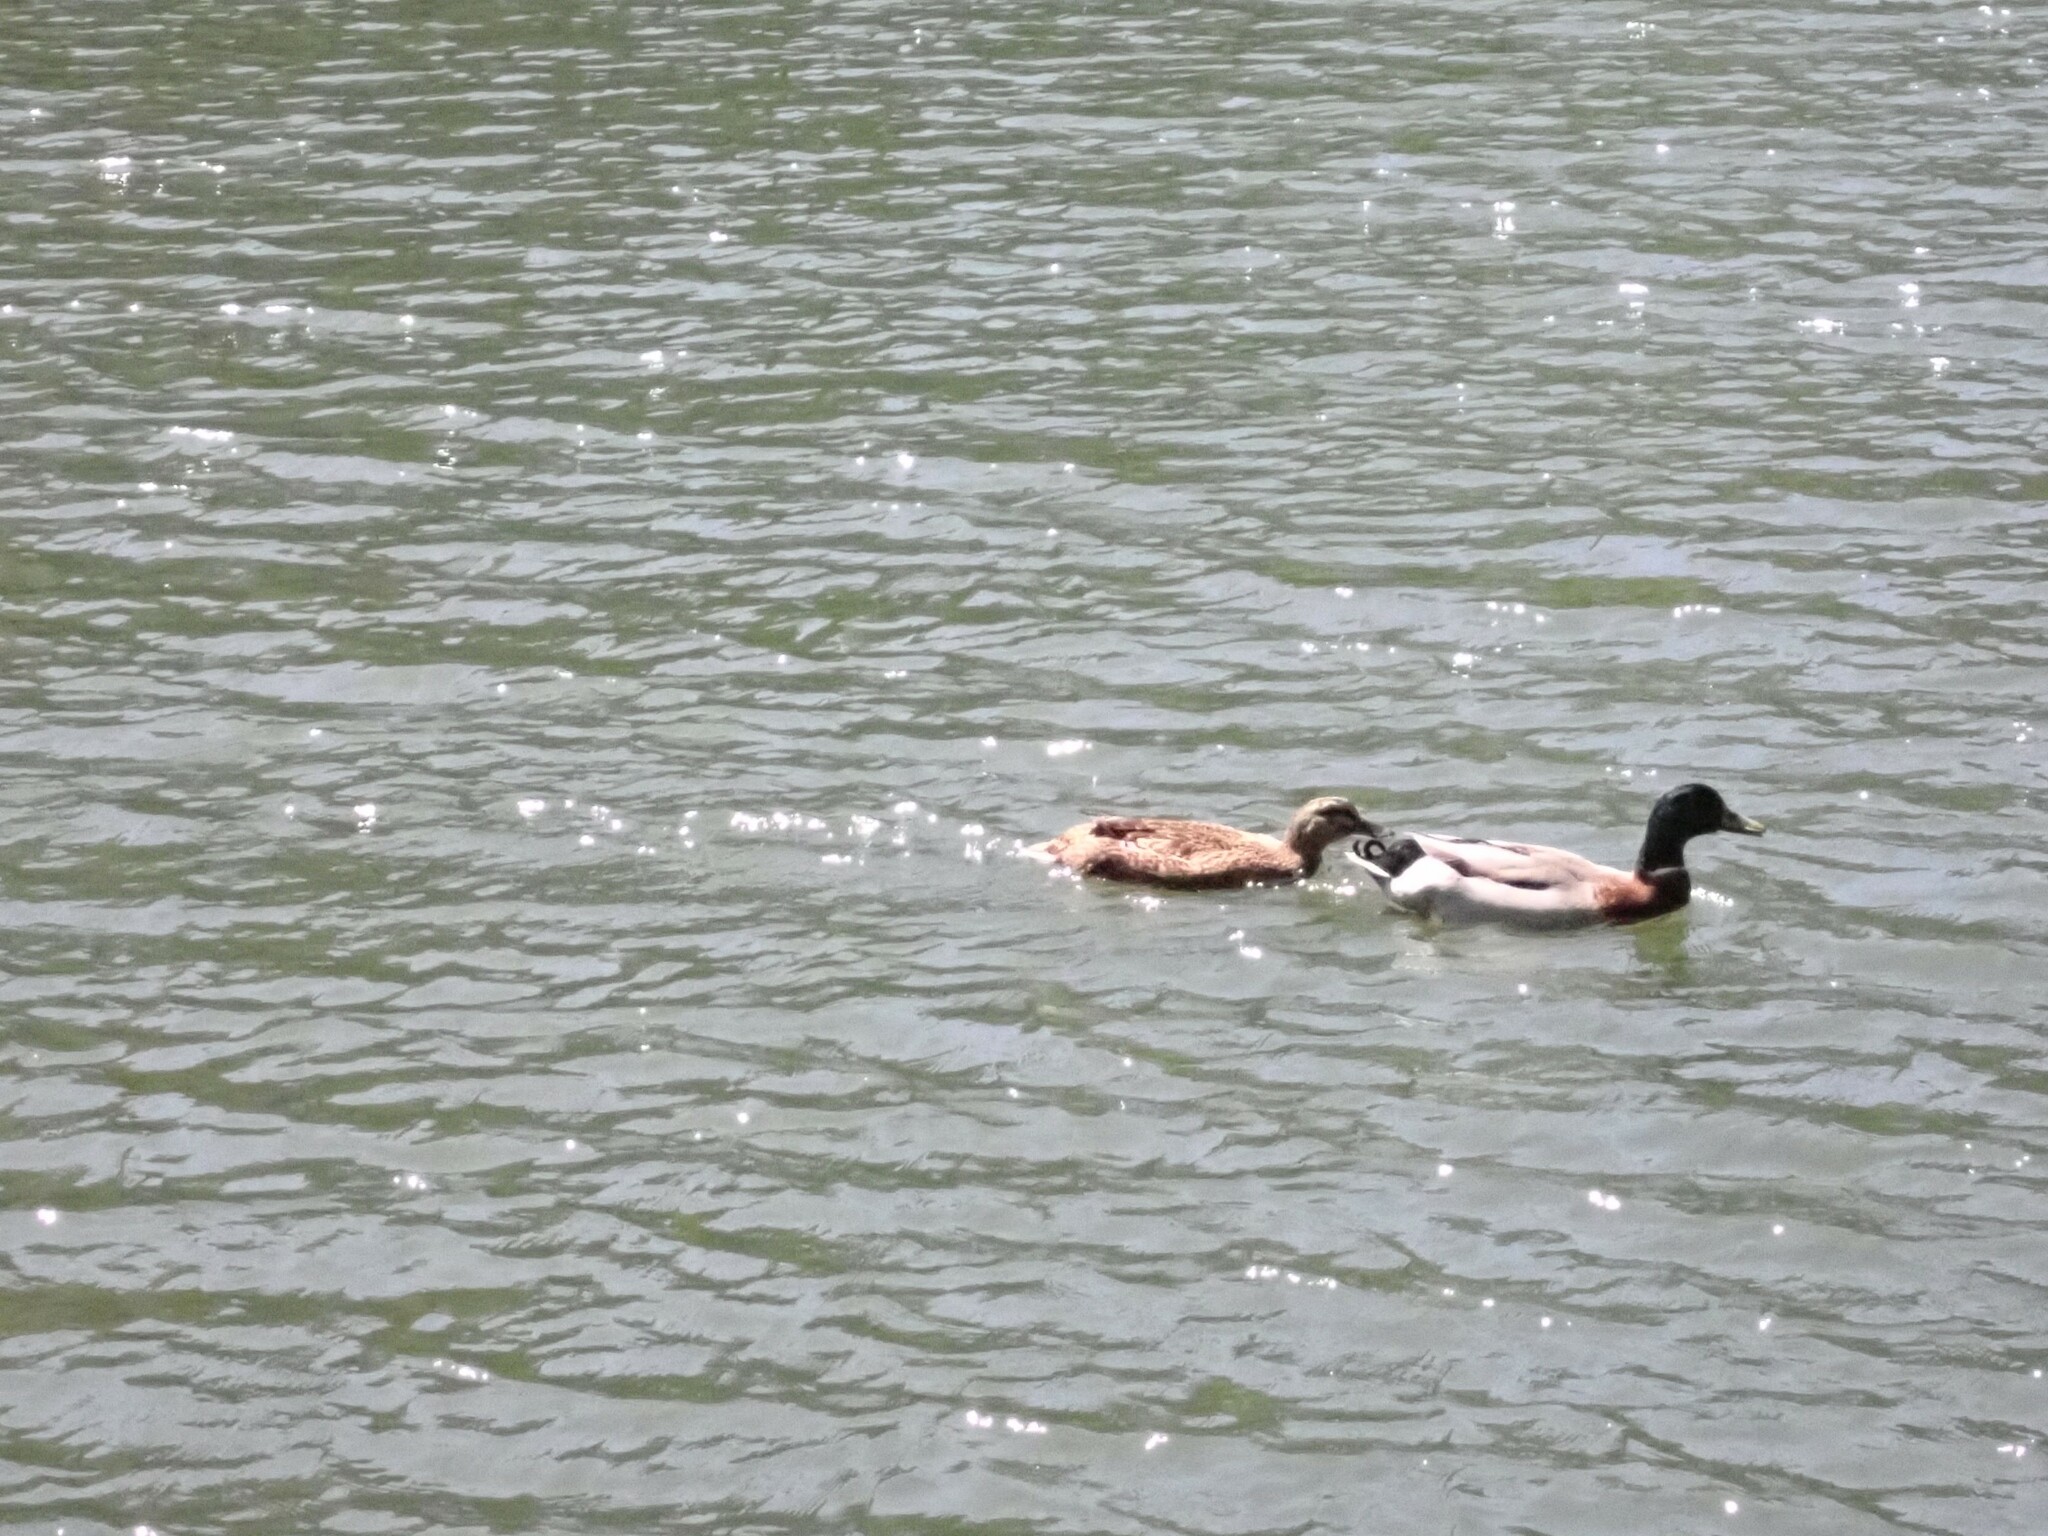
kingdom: Animalia
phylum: Chordata
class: Aves
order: Anseriformes
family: Anatidae
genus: Anas
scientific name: Anas platyrhynchos
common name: Mallard
